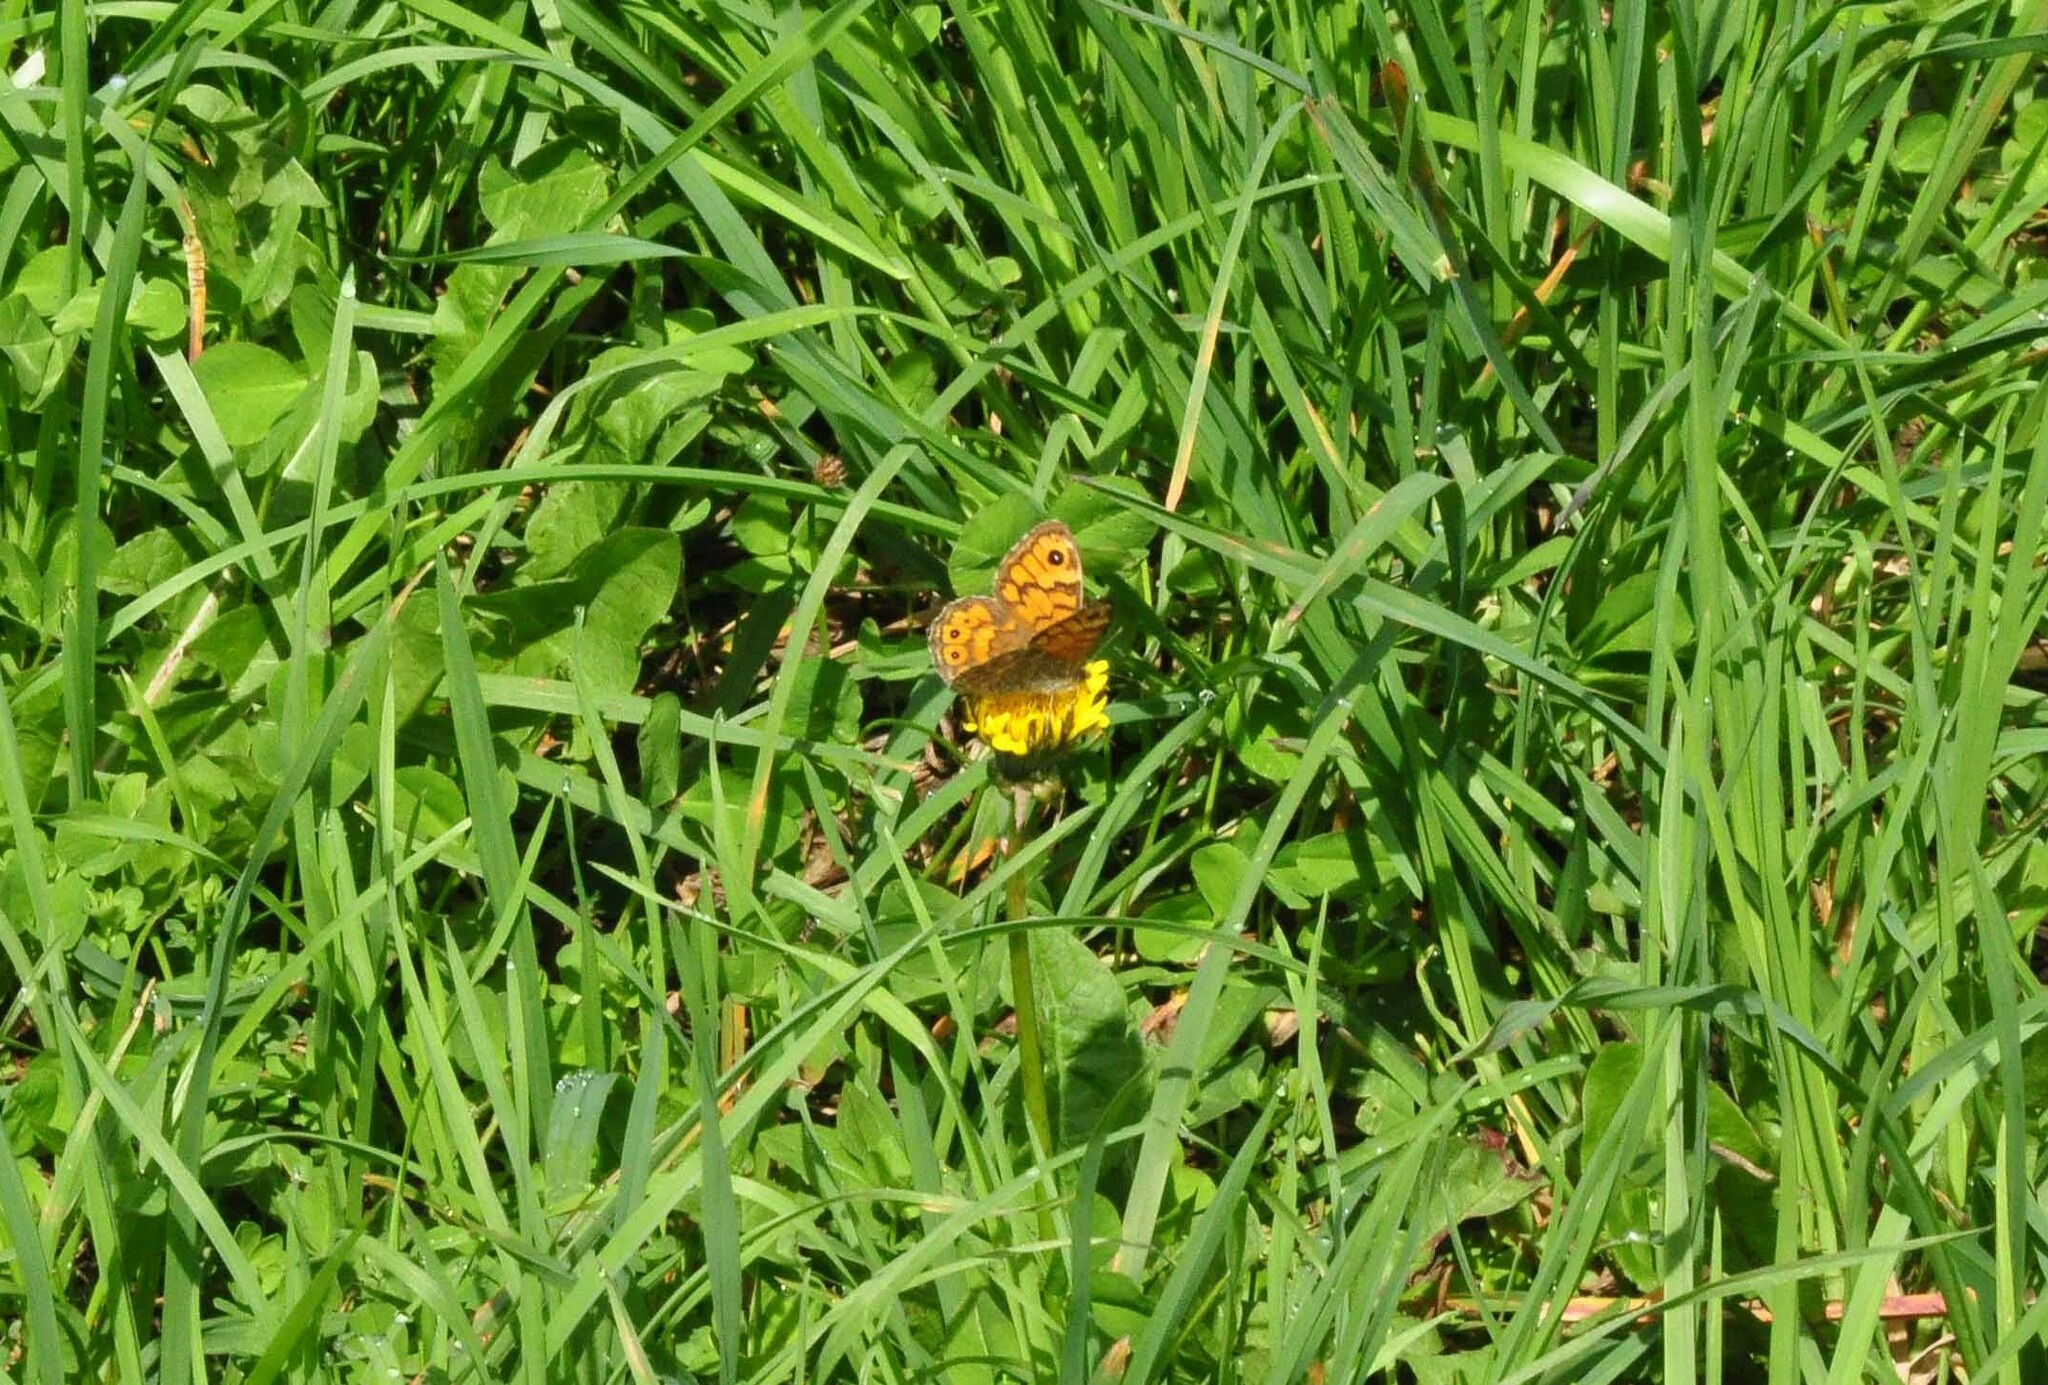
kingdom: Animalia
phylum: Arthropoda
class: Insecta
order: Lepidoptera
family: Nymphalidae
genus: Pararge
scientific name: Pararge Lasiommata megera
